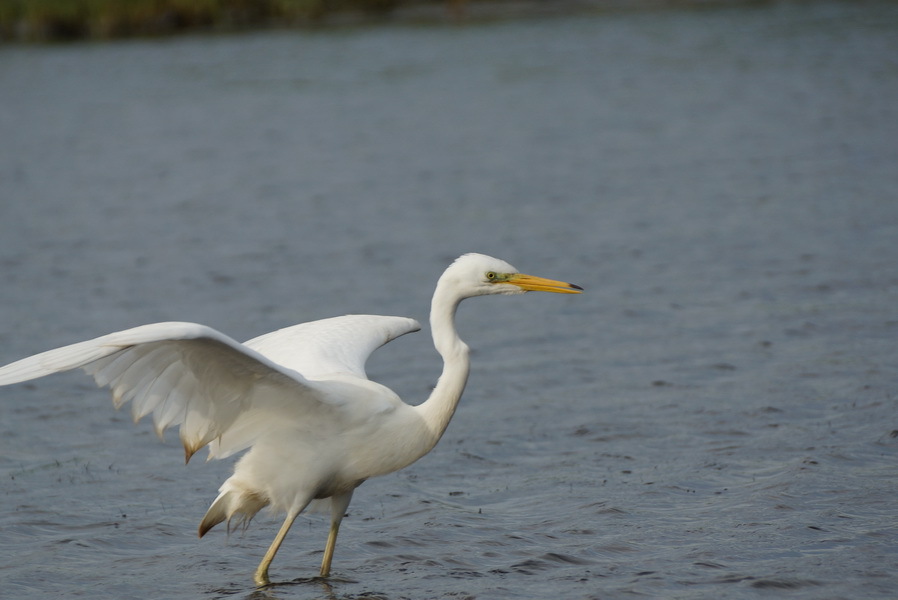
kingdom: Animalia
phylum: Chordata
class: Aves
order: Pelecaniformes
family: Ardeidae
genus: Ardea
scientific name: Ardea alba
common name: Great egret
